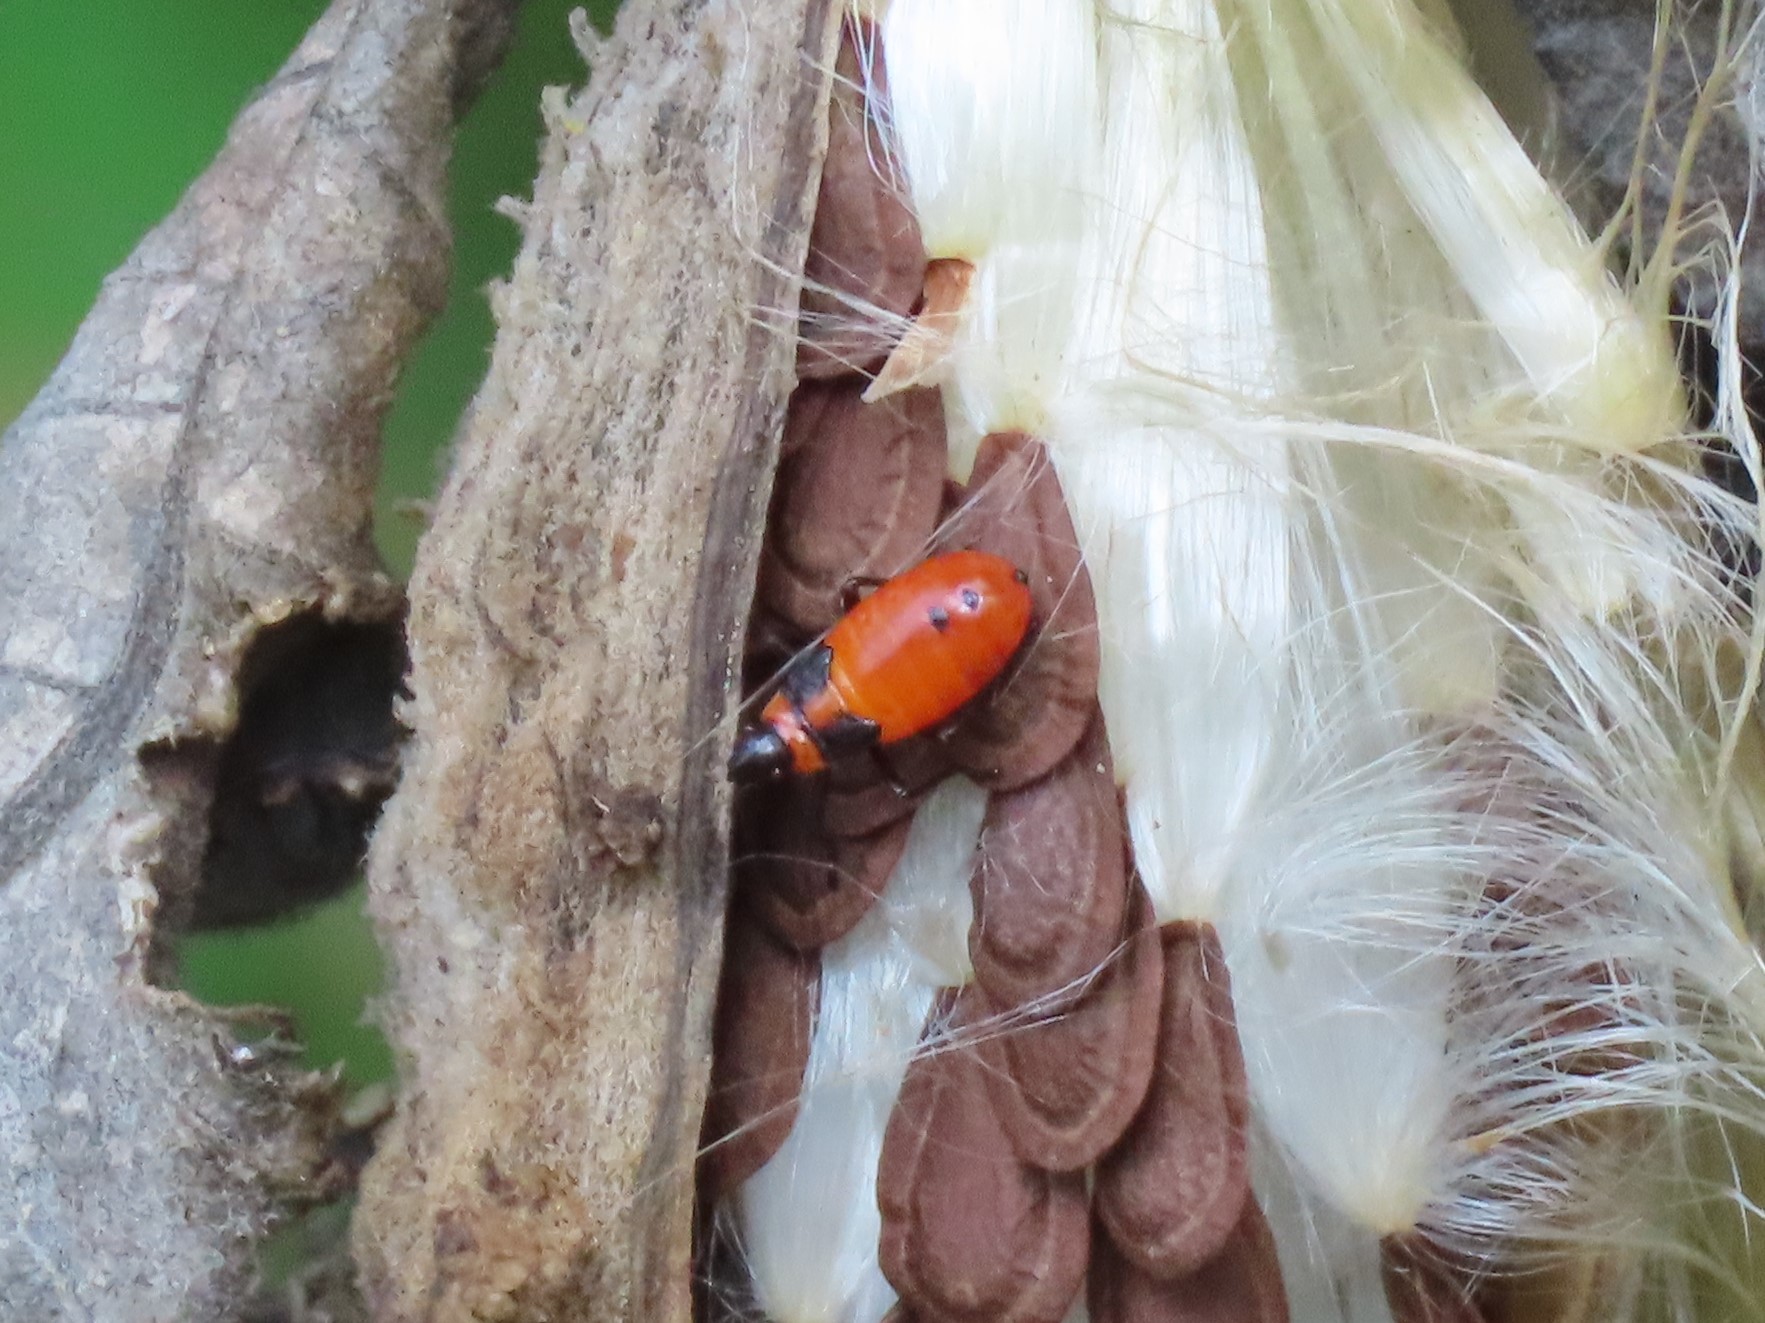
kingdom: Animalia
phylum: Arthropoda
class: Insecta
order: Hemiptera
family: Lygaeidae
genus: Oncopeltus
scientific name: Oncopeltus fasciatus
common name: Large milkweed bug
